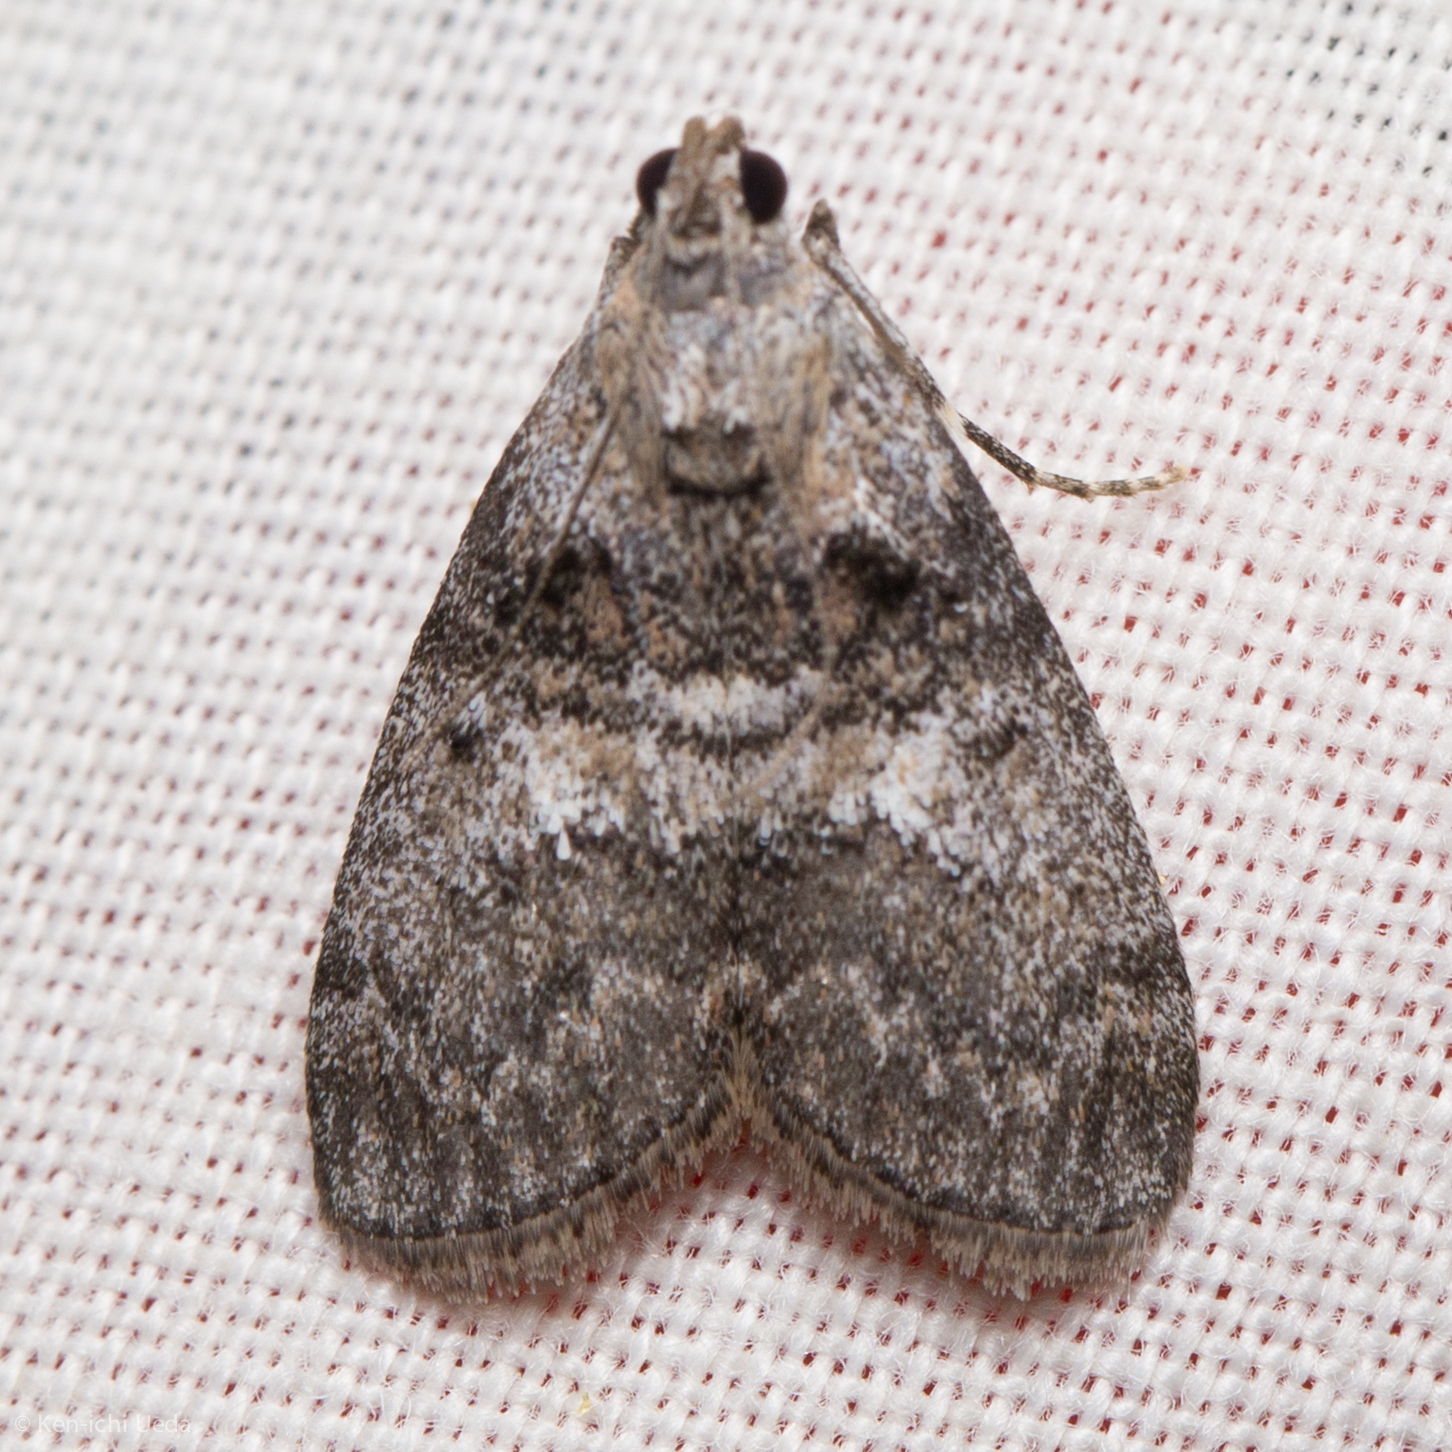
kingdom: Animalia
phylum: Arthropoda
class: Insecta
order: Lepidoptera
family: Pyralidae
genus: Pococera
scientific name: Pococera asperatella
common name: Maple webworm moth
